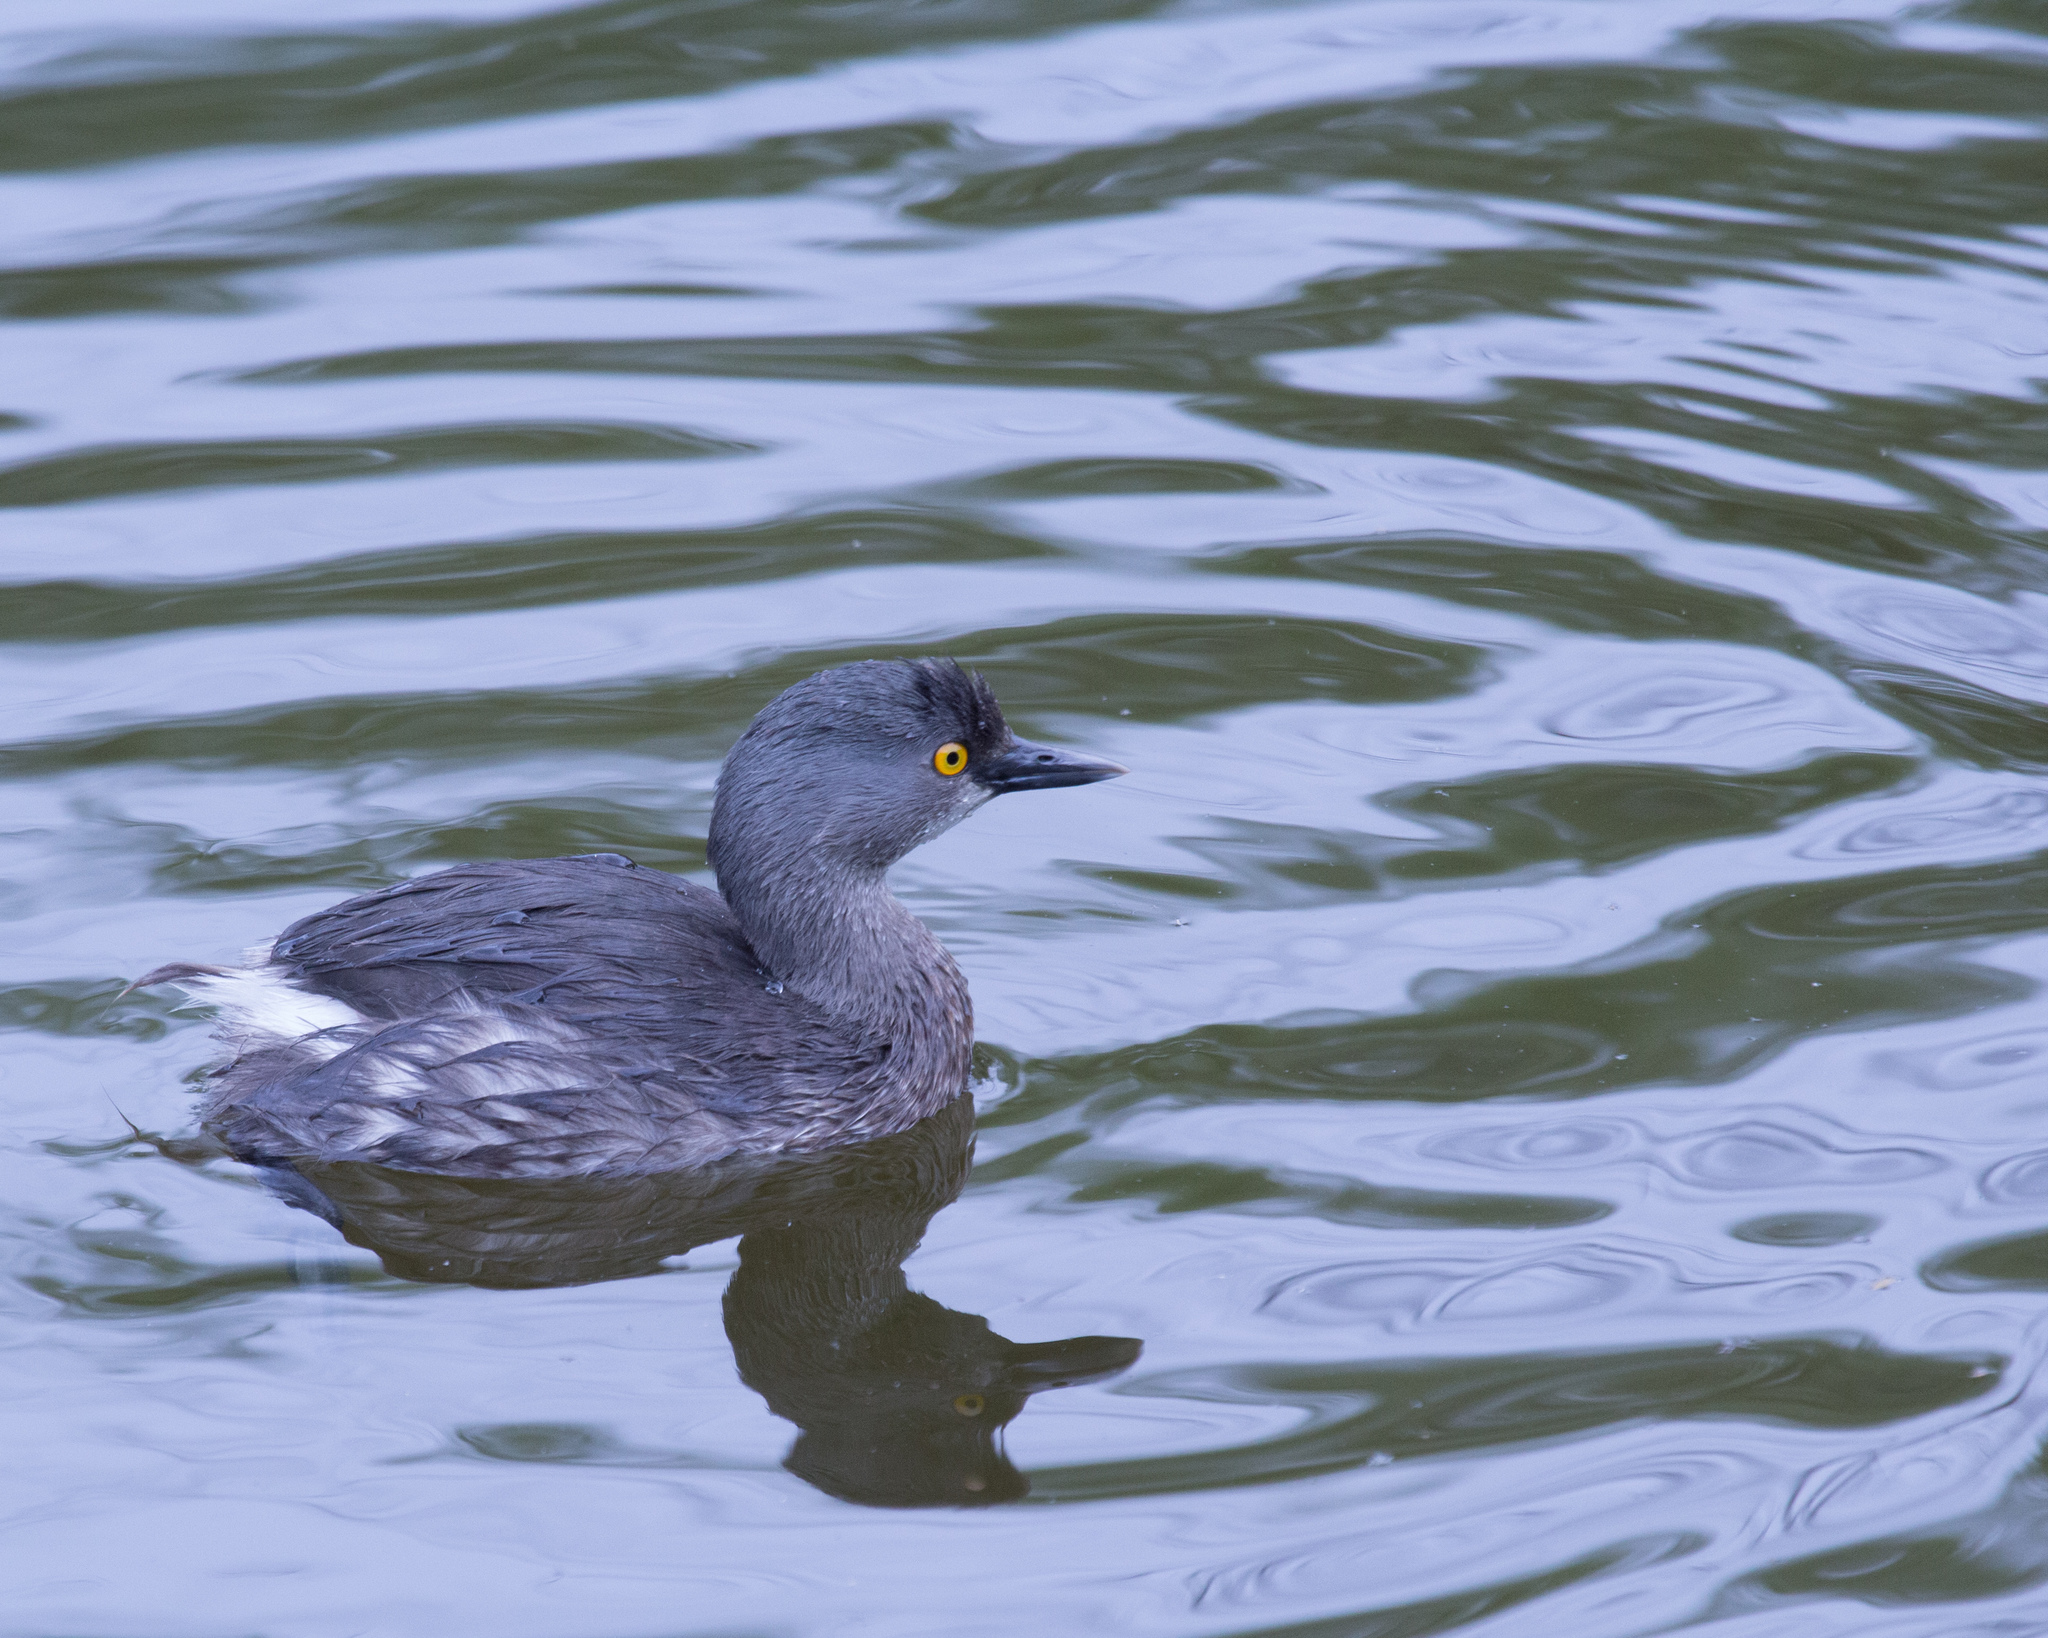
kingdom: Animalia
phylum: Chordata
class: Aves
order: Podicipediformes
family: Podicipedidae
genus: Tachybaptus
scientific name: Tachybaptus dominicus
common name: Least grebe
